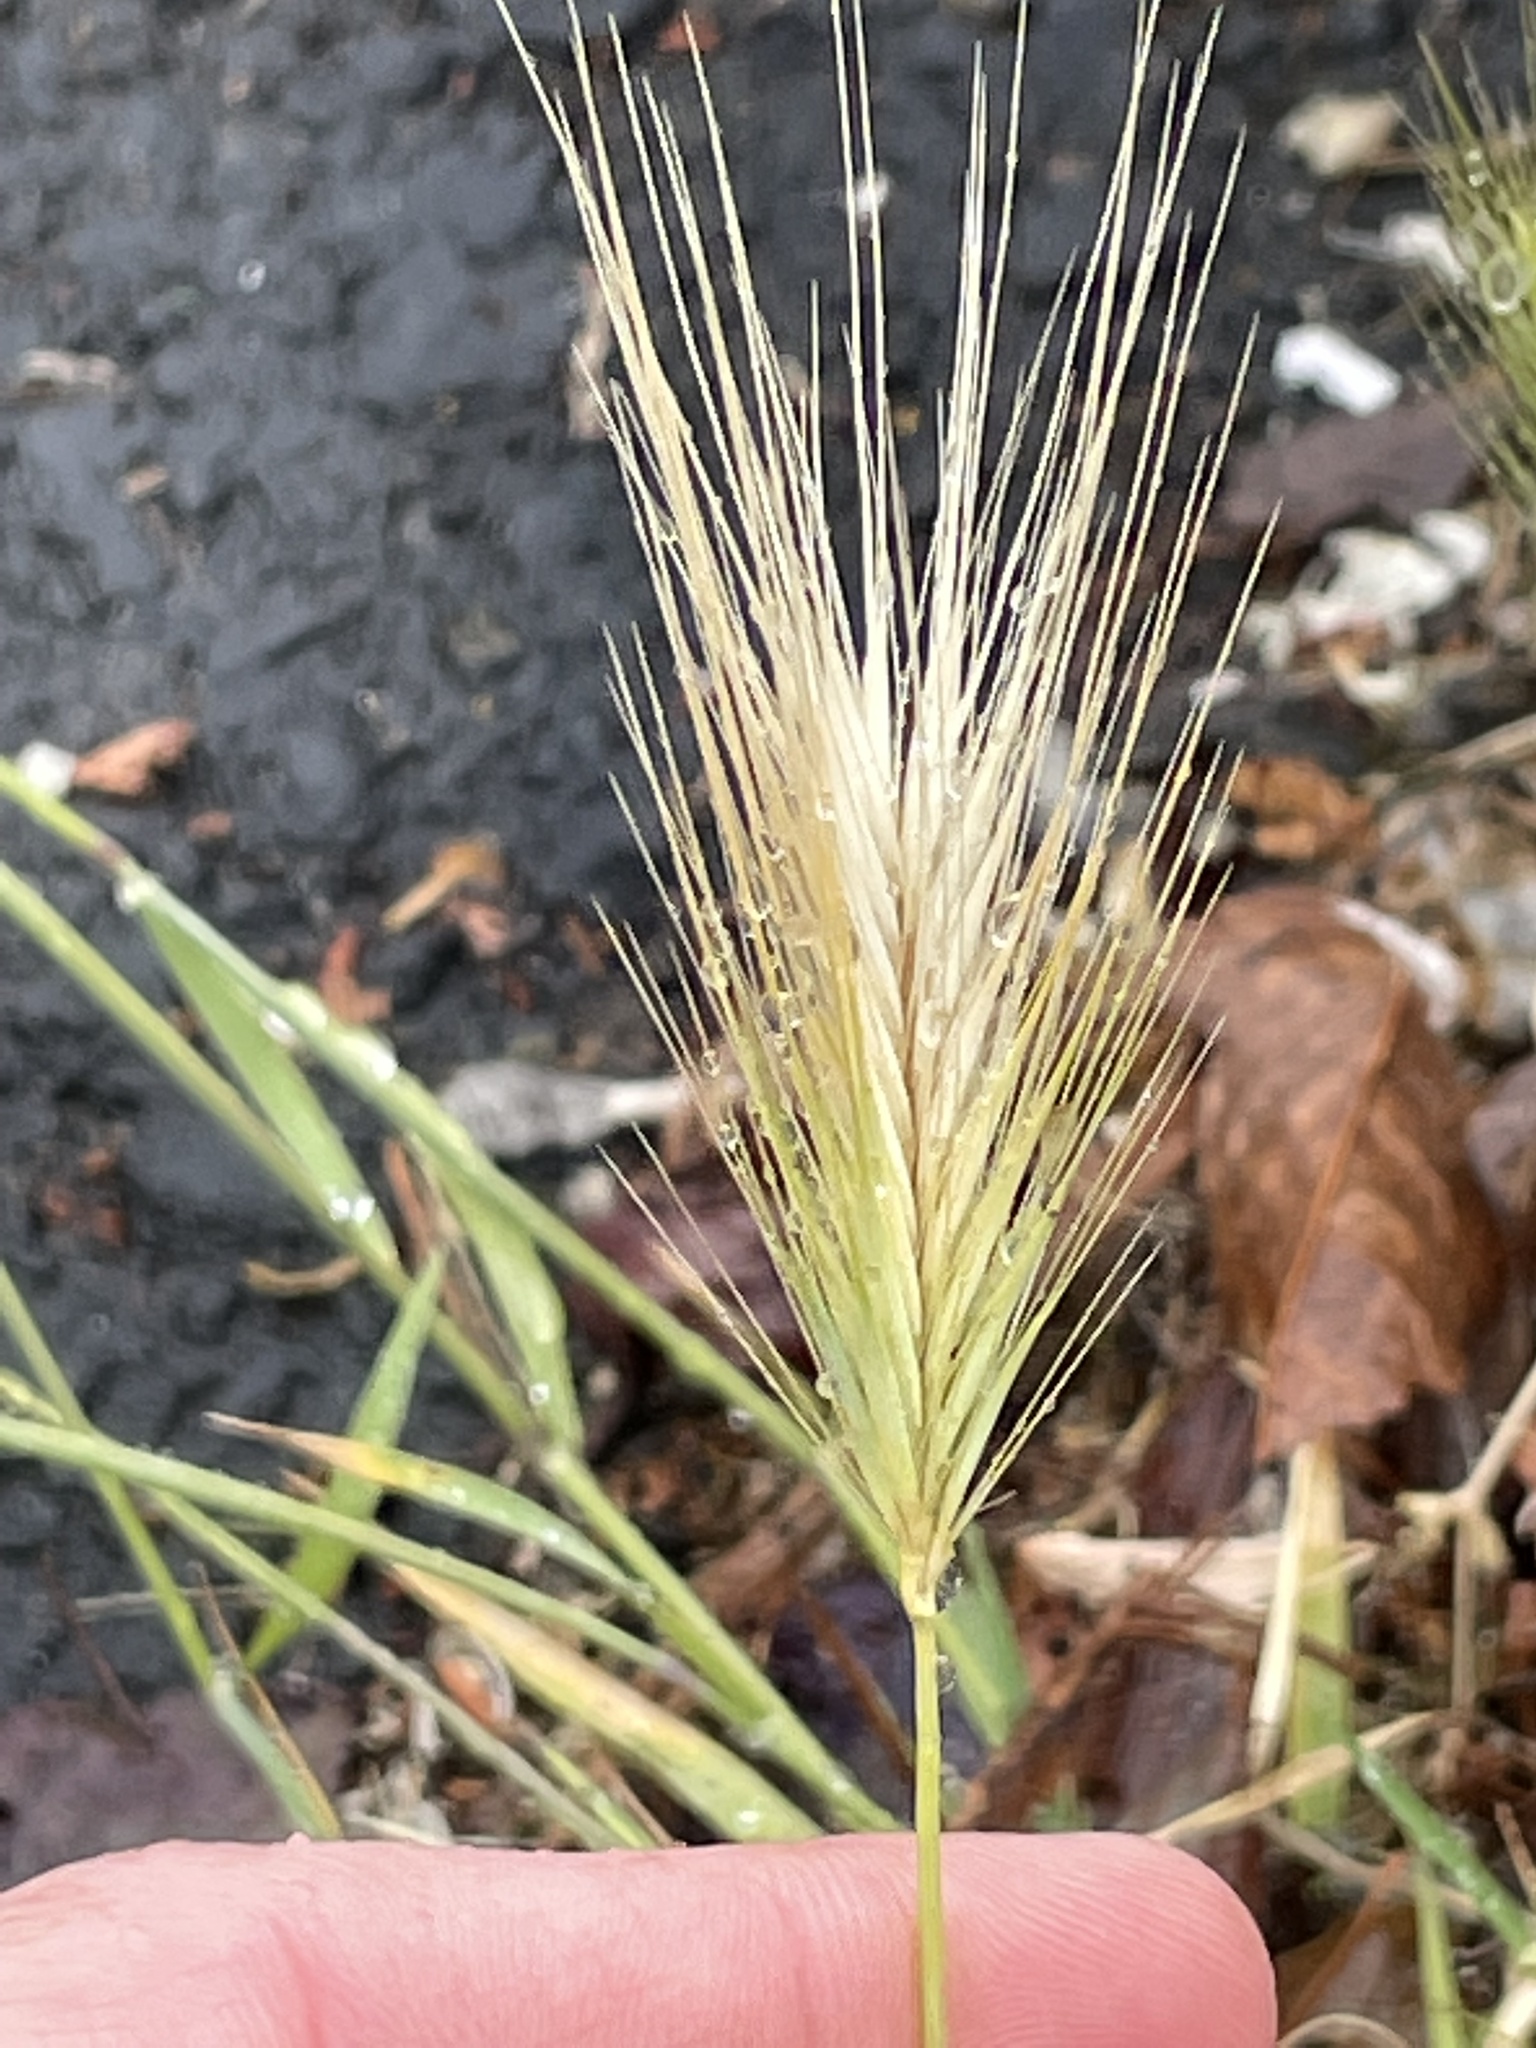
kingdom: Plantae
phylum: Tracheophyta
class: Liliopsida
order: Poales
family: Poaceae
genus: Hordeum
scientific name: Hordeum murinum
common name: Wall barley
